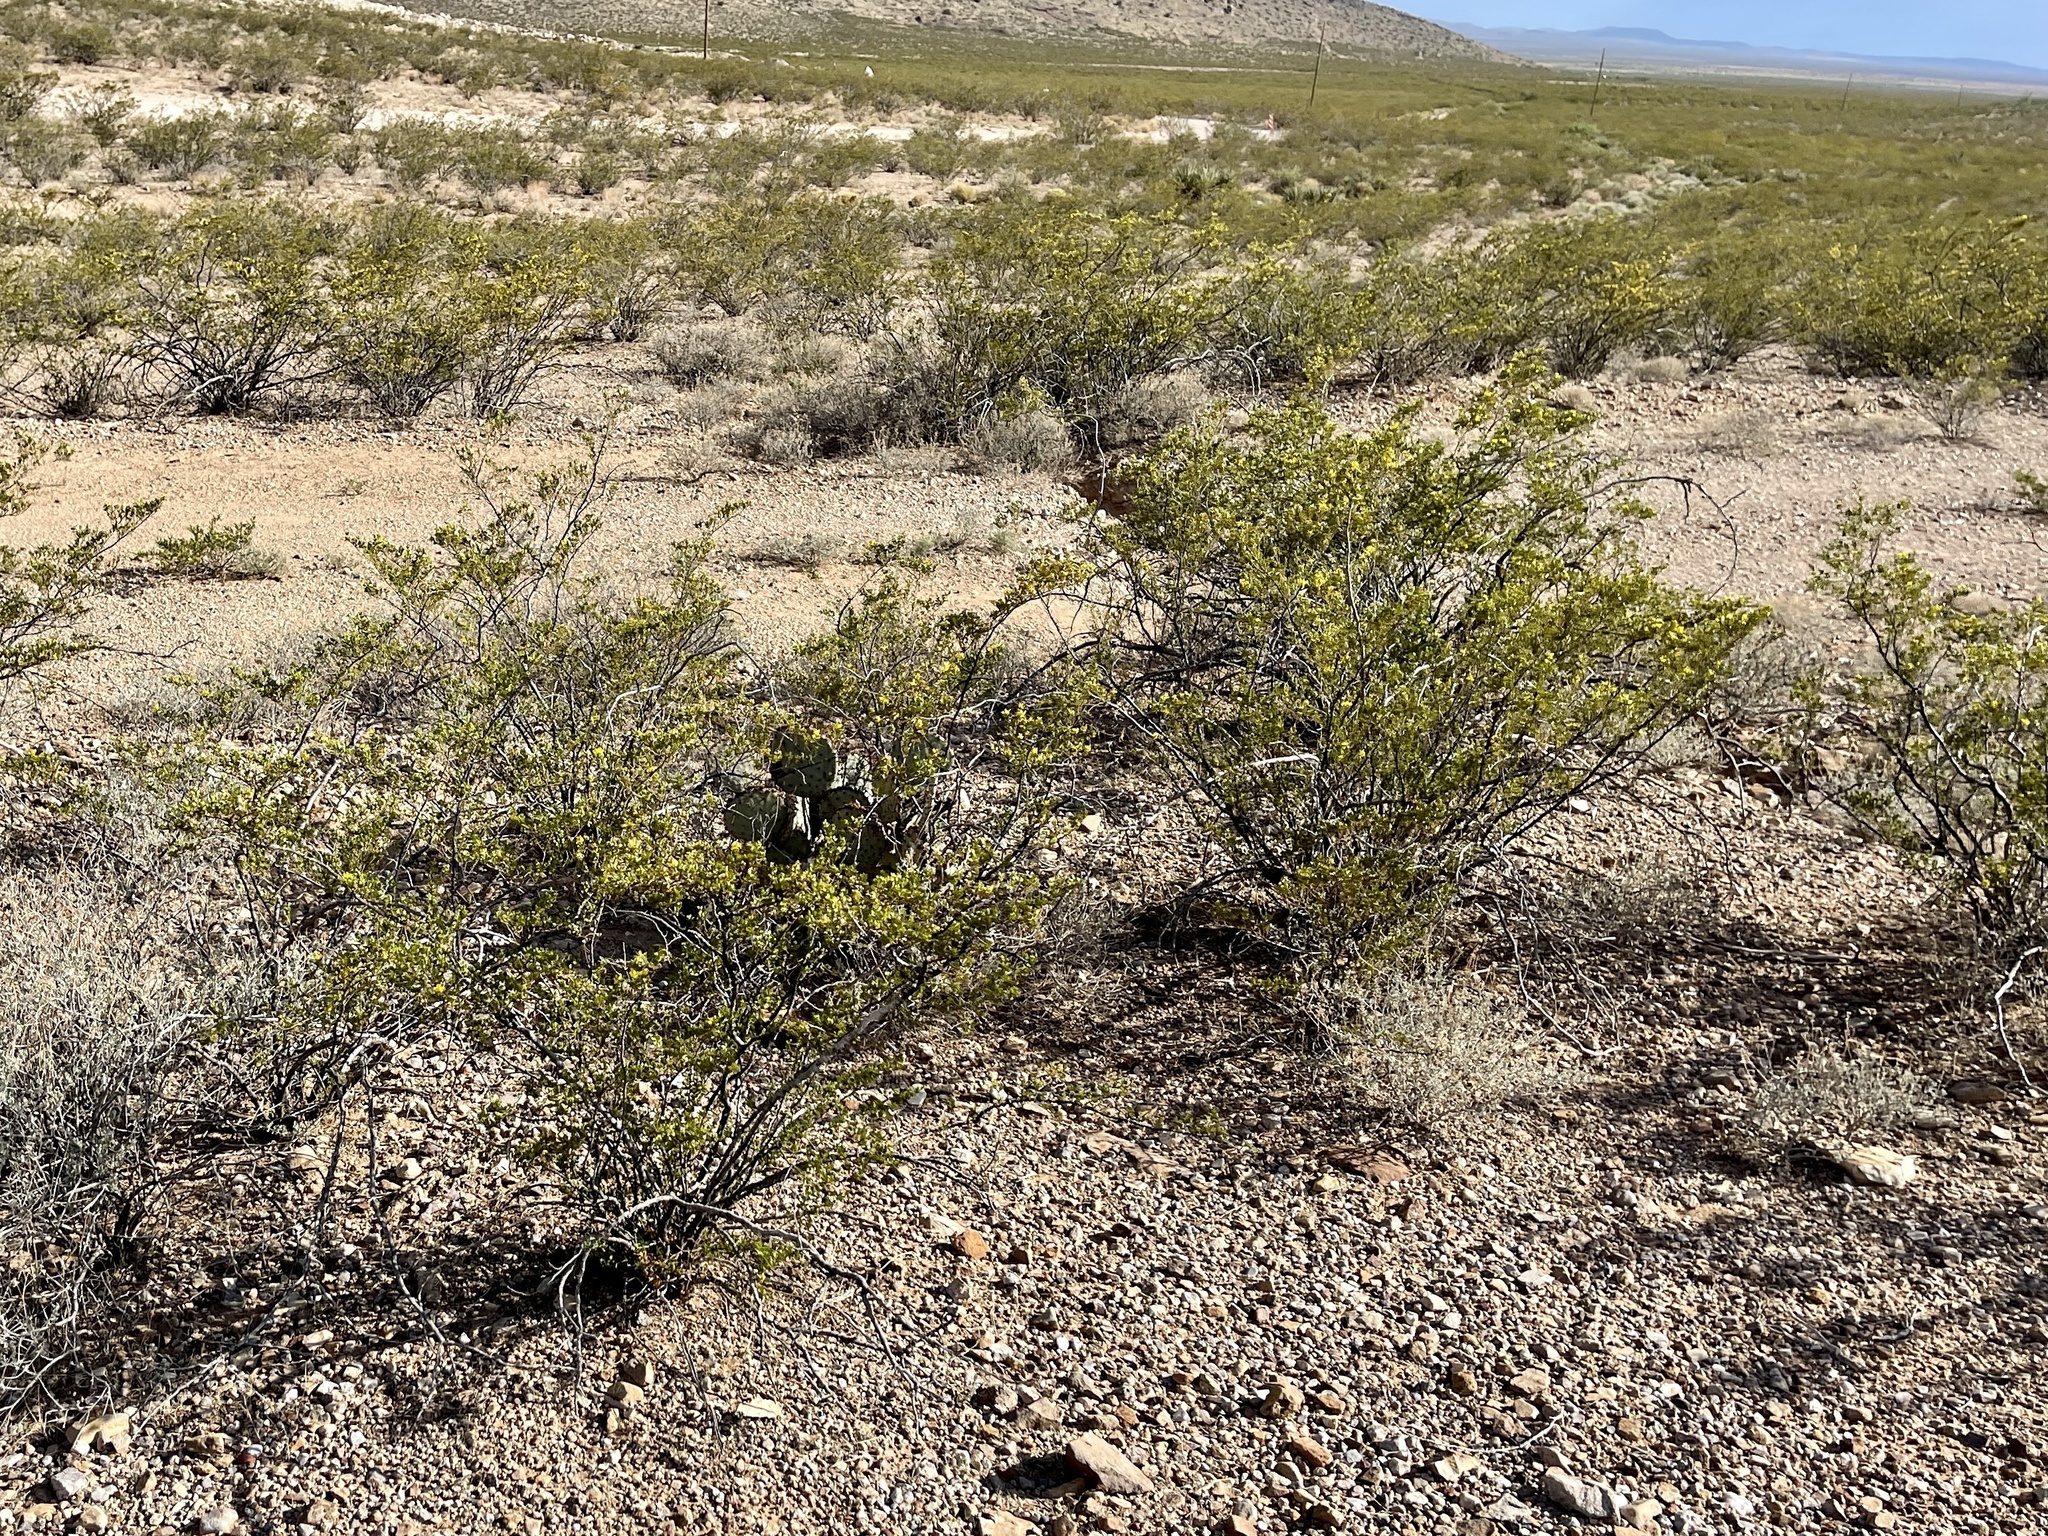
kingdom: Plantae
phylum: Tracheophyta
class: Magnoliopsida
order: Zygophyllales
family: Zygophyllaceae
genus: Larrea
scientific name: Larrea tridentata
